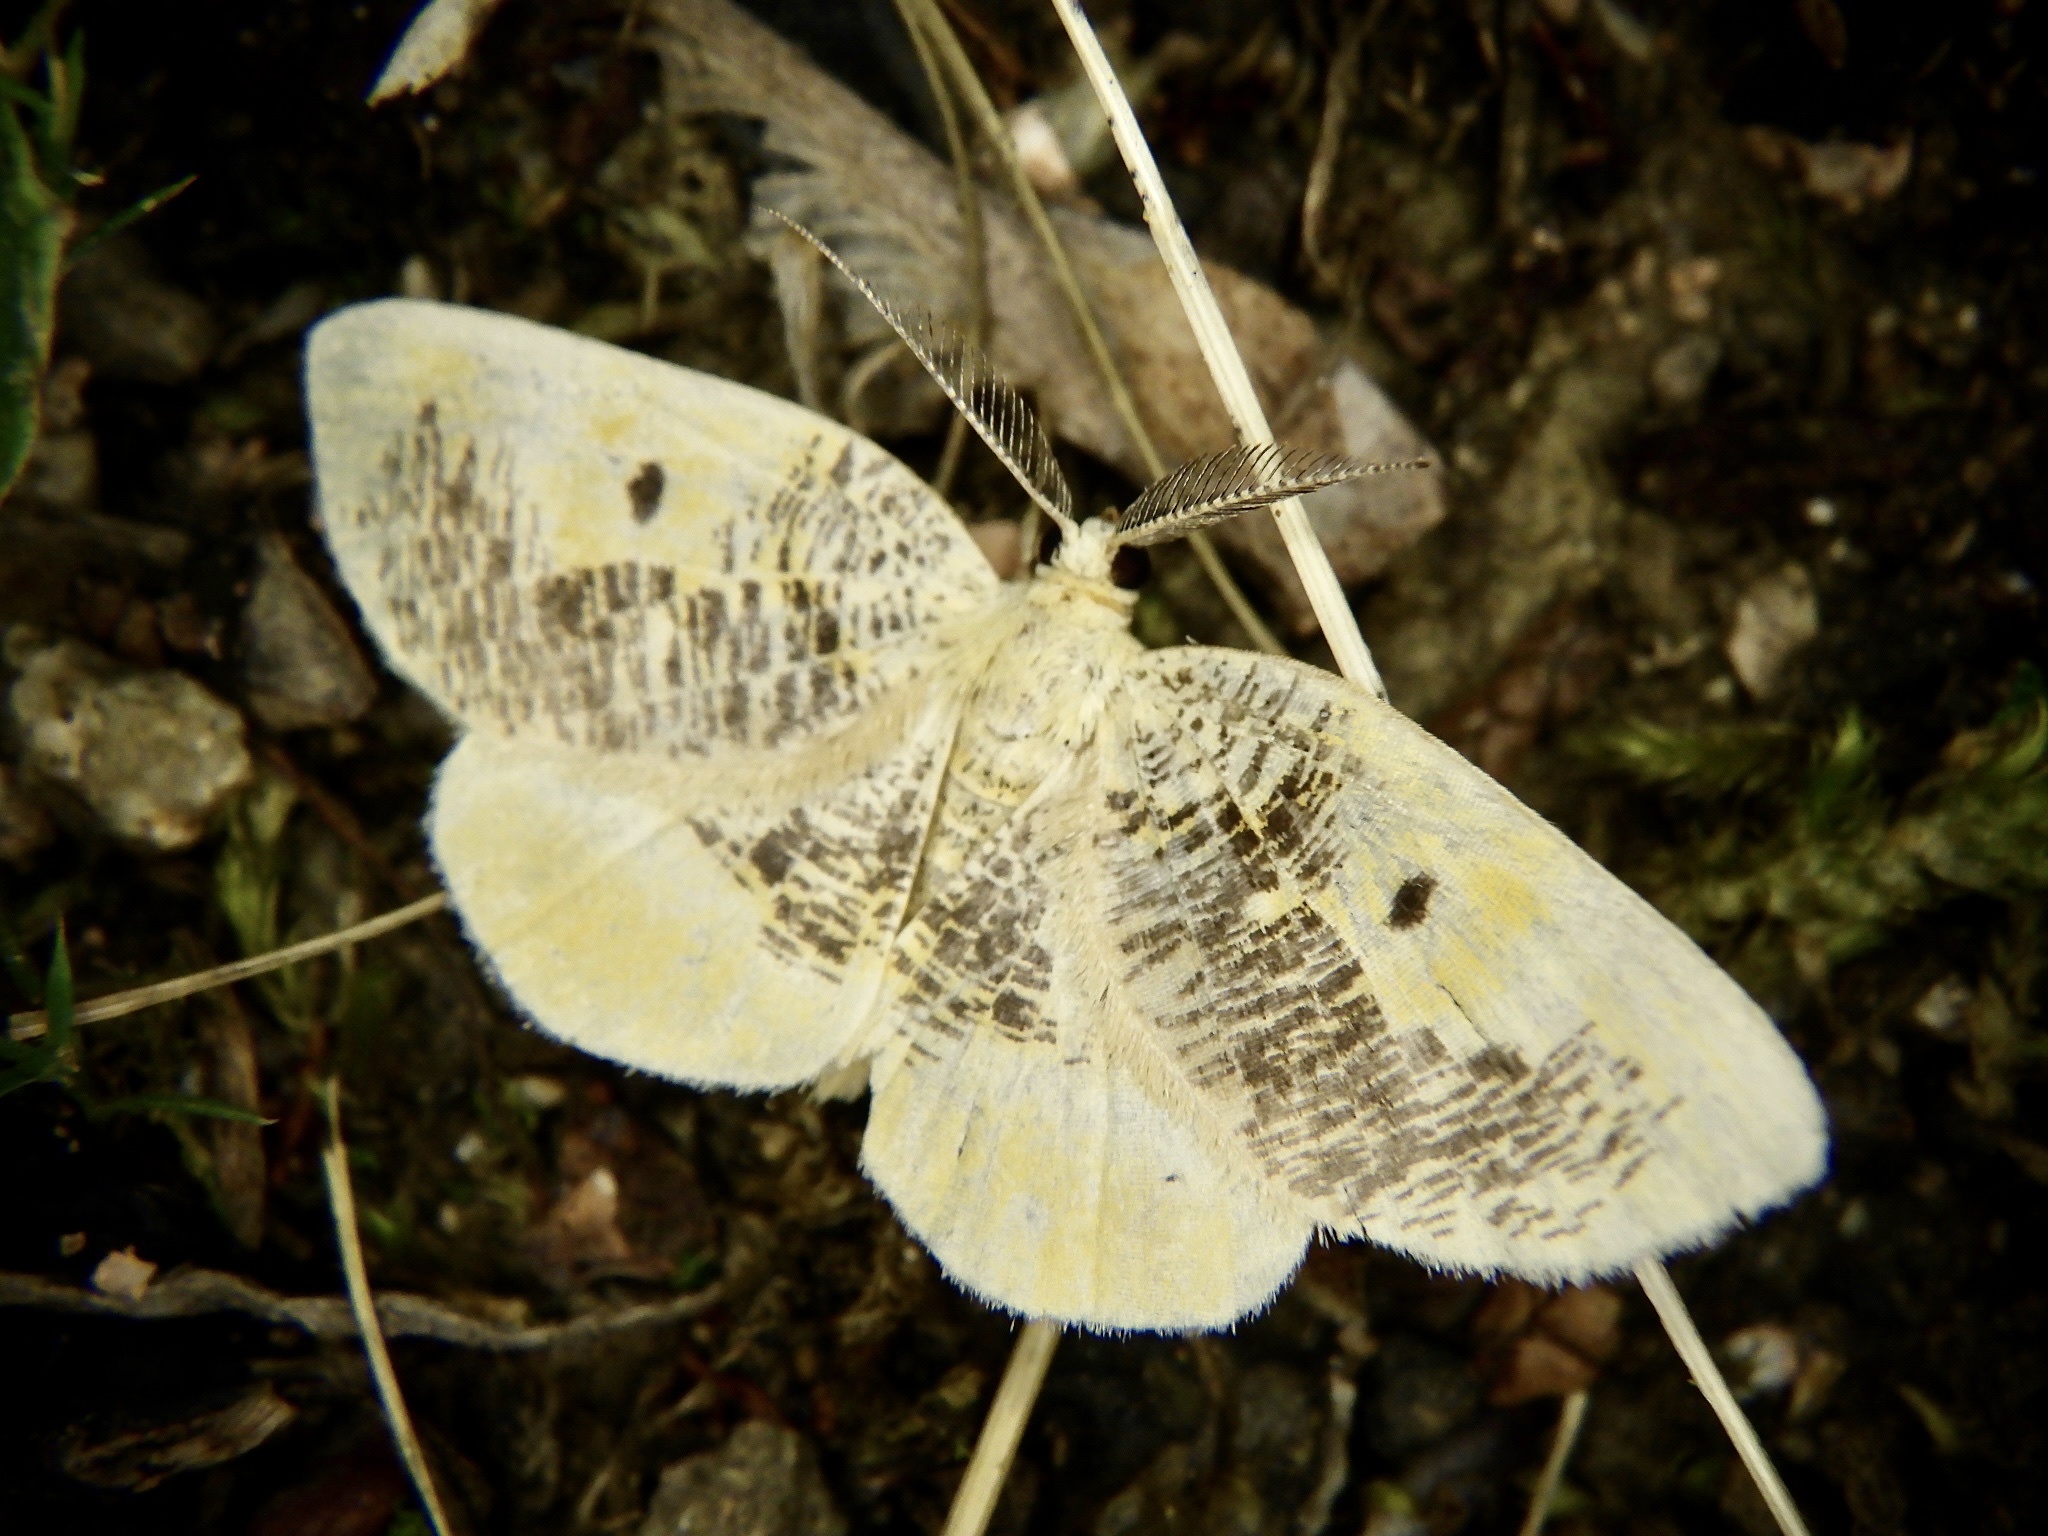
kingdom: Animalia
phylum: Arthropoda
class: Insecta
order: Lepidoptera
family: Geometridae
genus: Euchristophia
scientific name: Euchristophia cumulata
